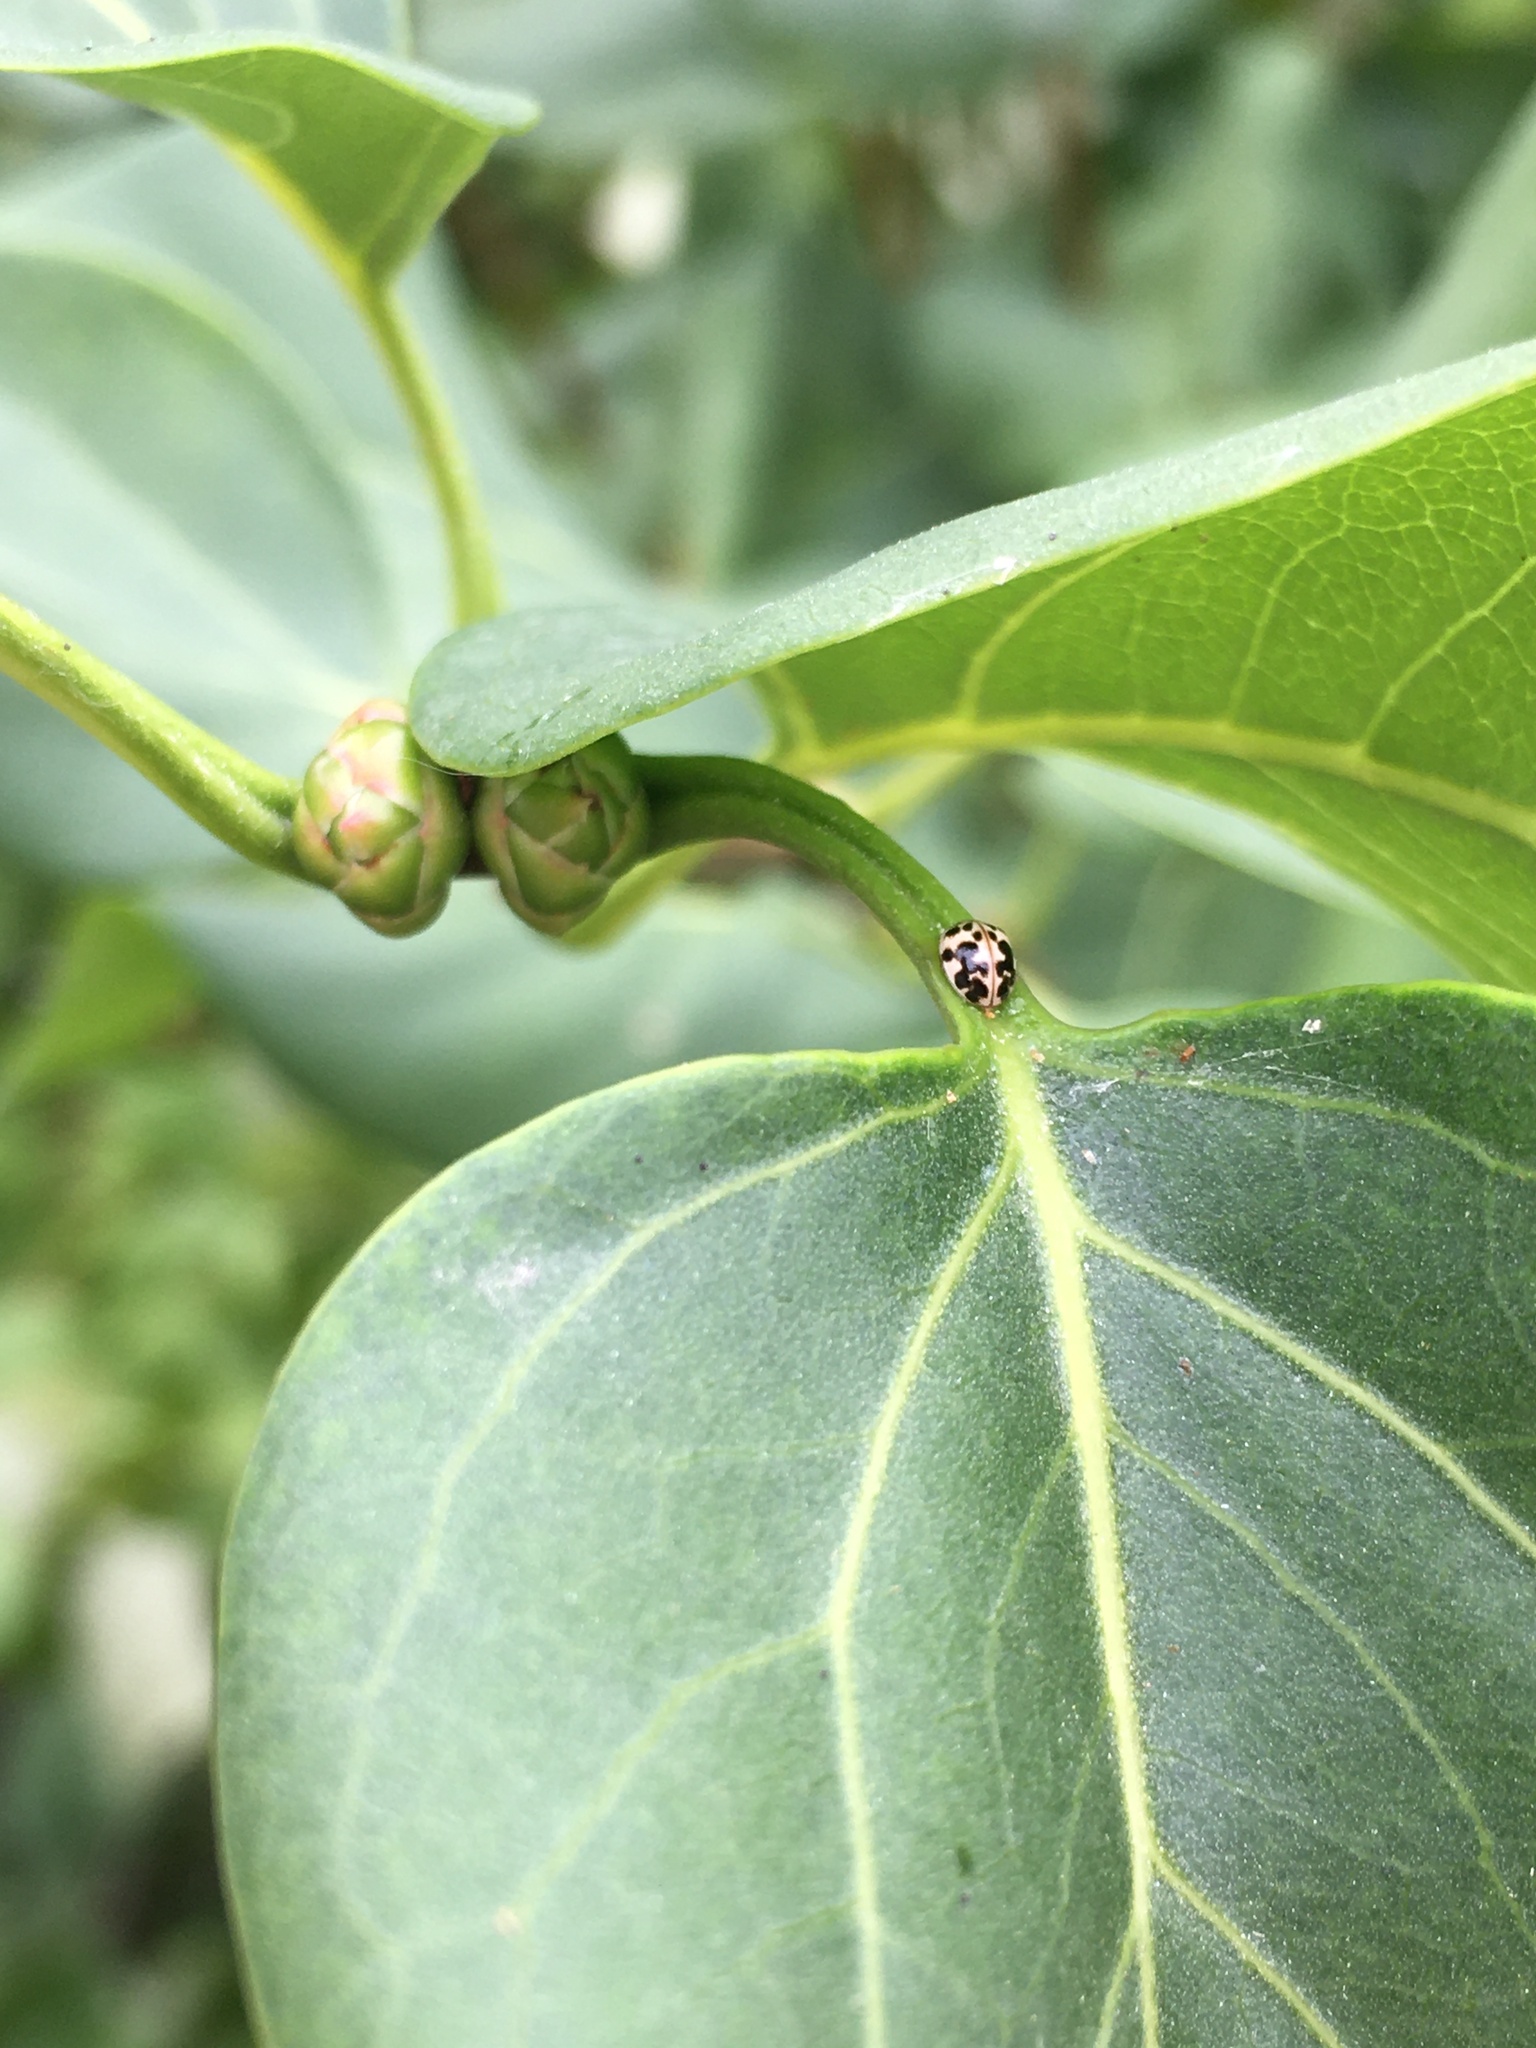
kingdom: Animalia
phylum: Arthropoda
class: Insecta
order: Coleoptera
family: Coccinellidae
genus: Psyllobora
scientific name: Psyllobora vigintimaculata
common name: Ladybird beetle
